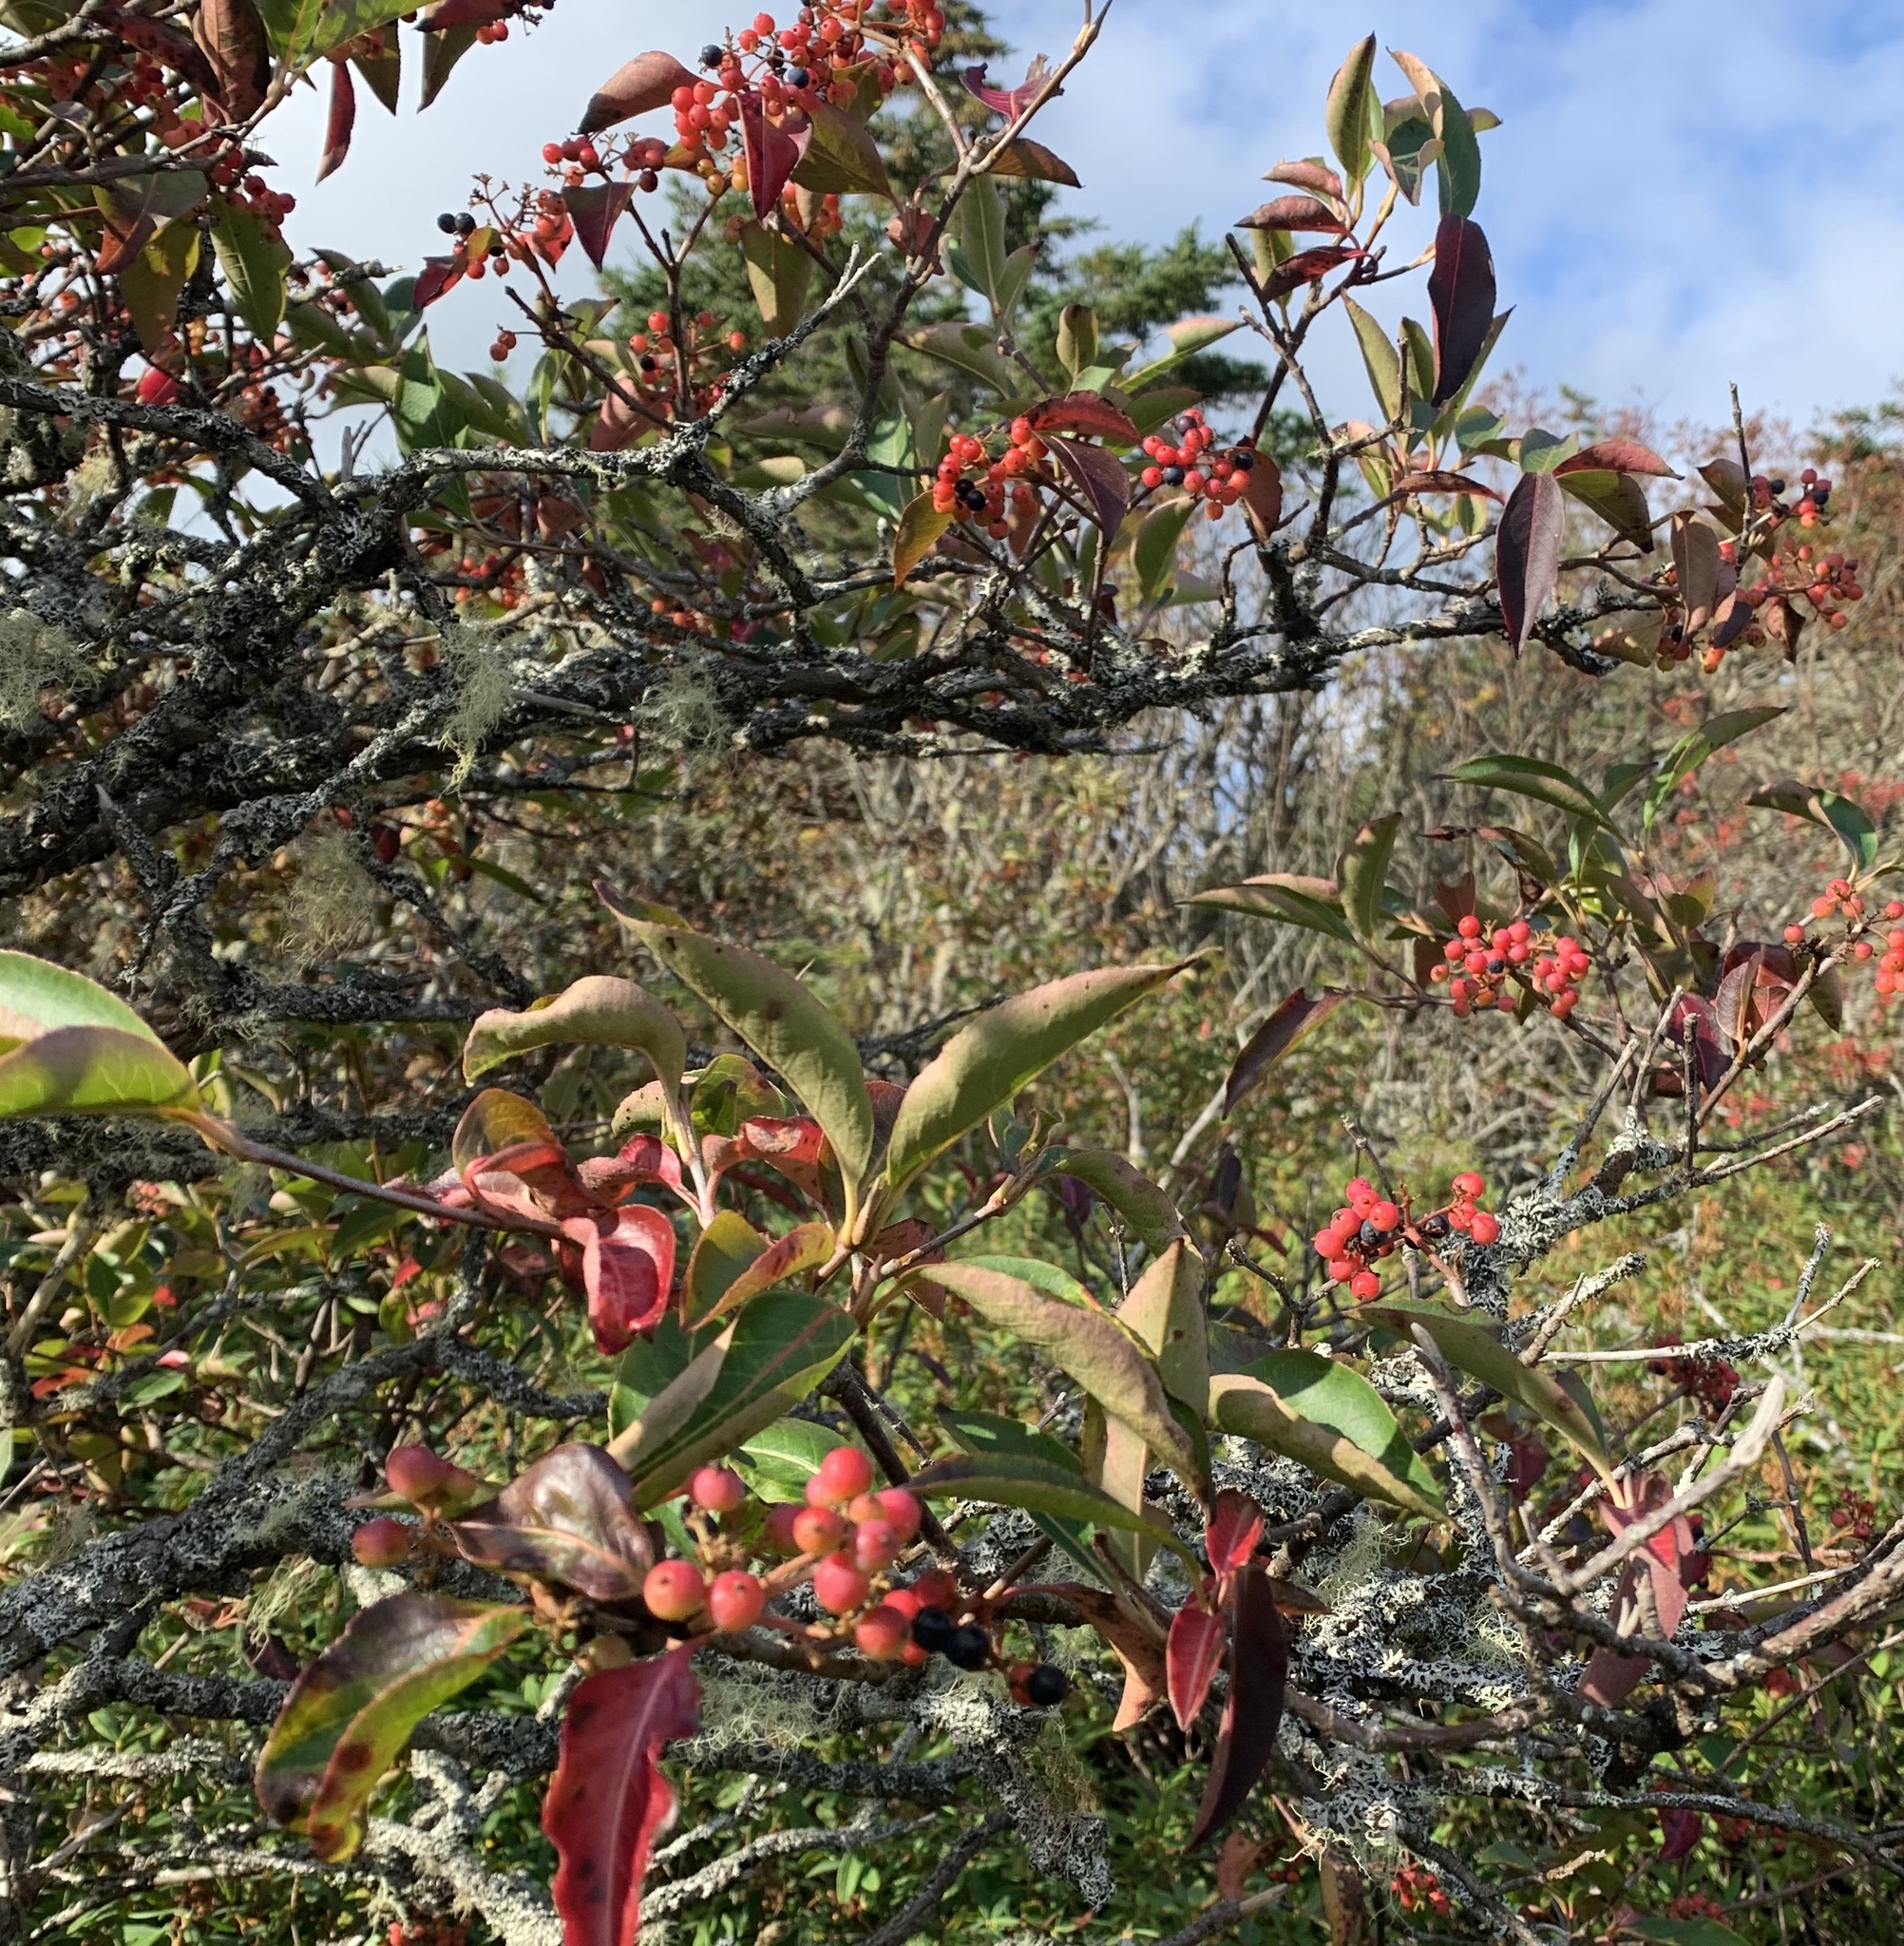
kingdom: Plantae
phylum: Tracheophyta
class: Magnoliopsida
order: Dipsacales
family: Viburnaceae
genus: Viburnum
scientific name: Viburnum cassinoides
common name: Swamp haw
